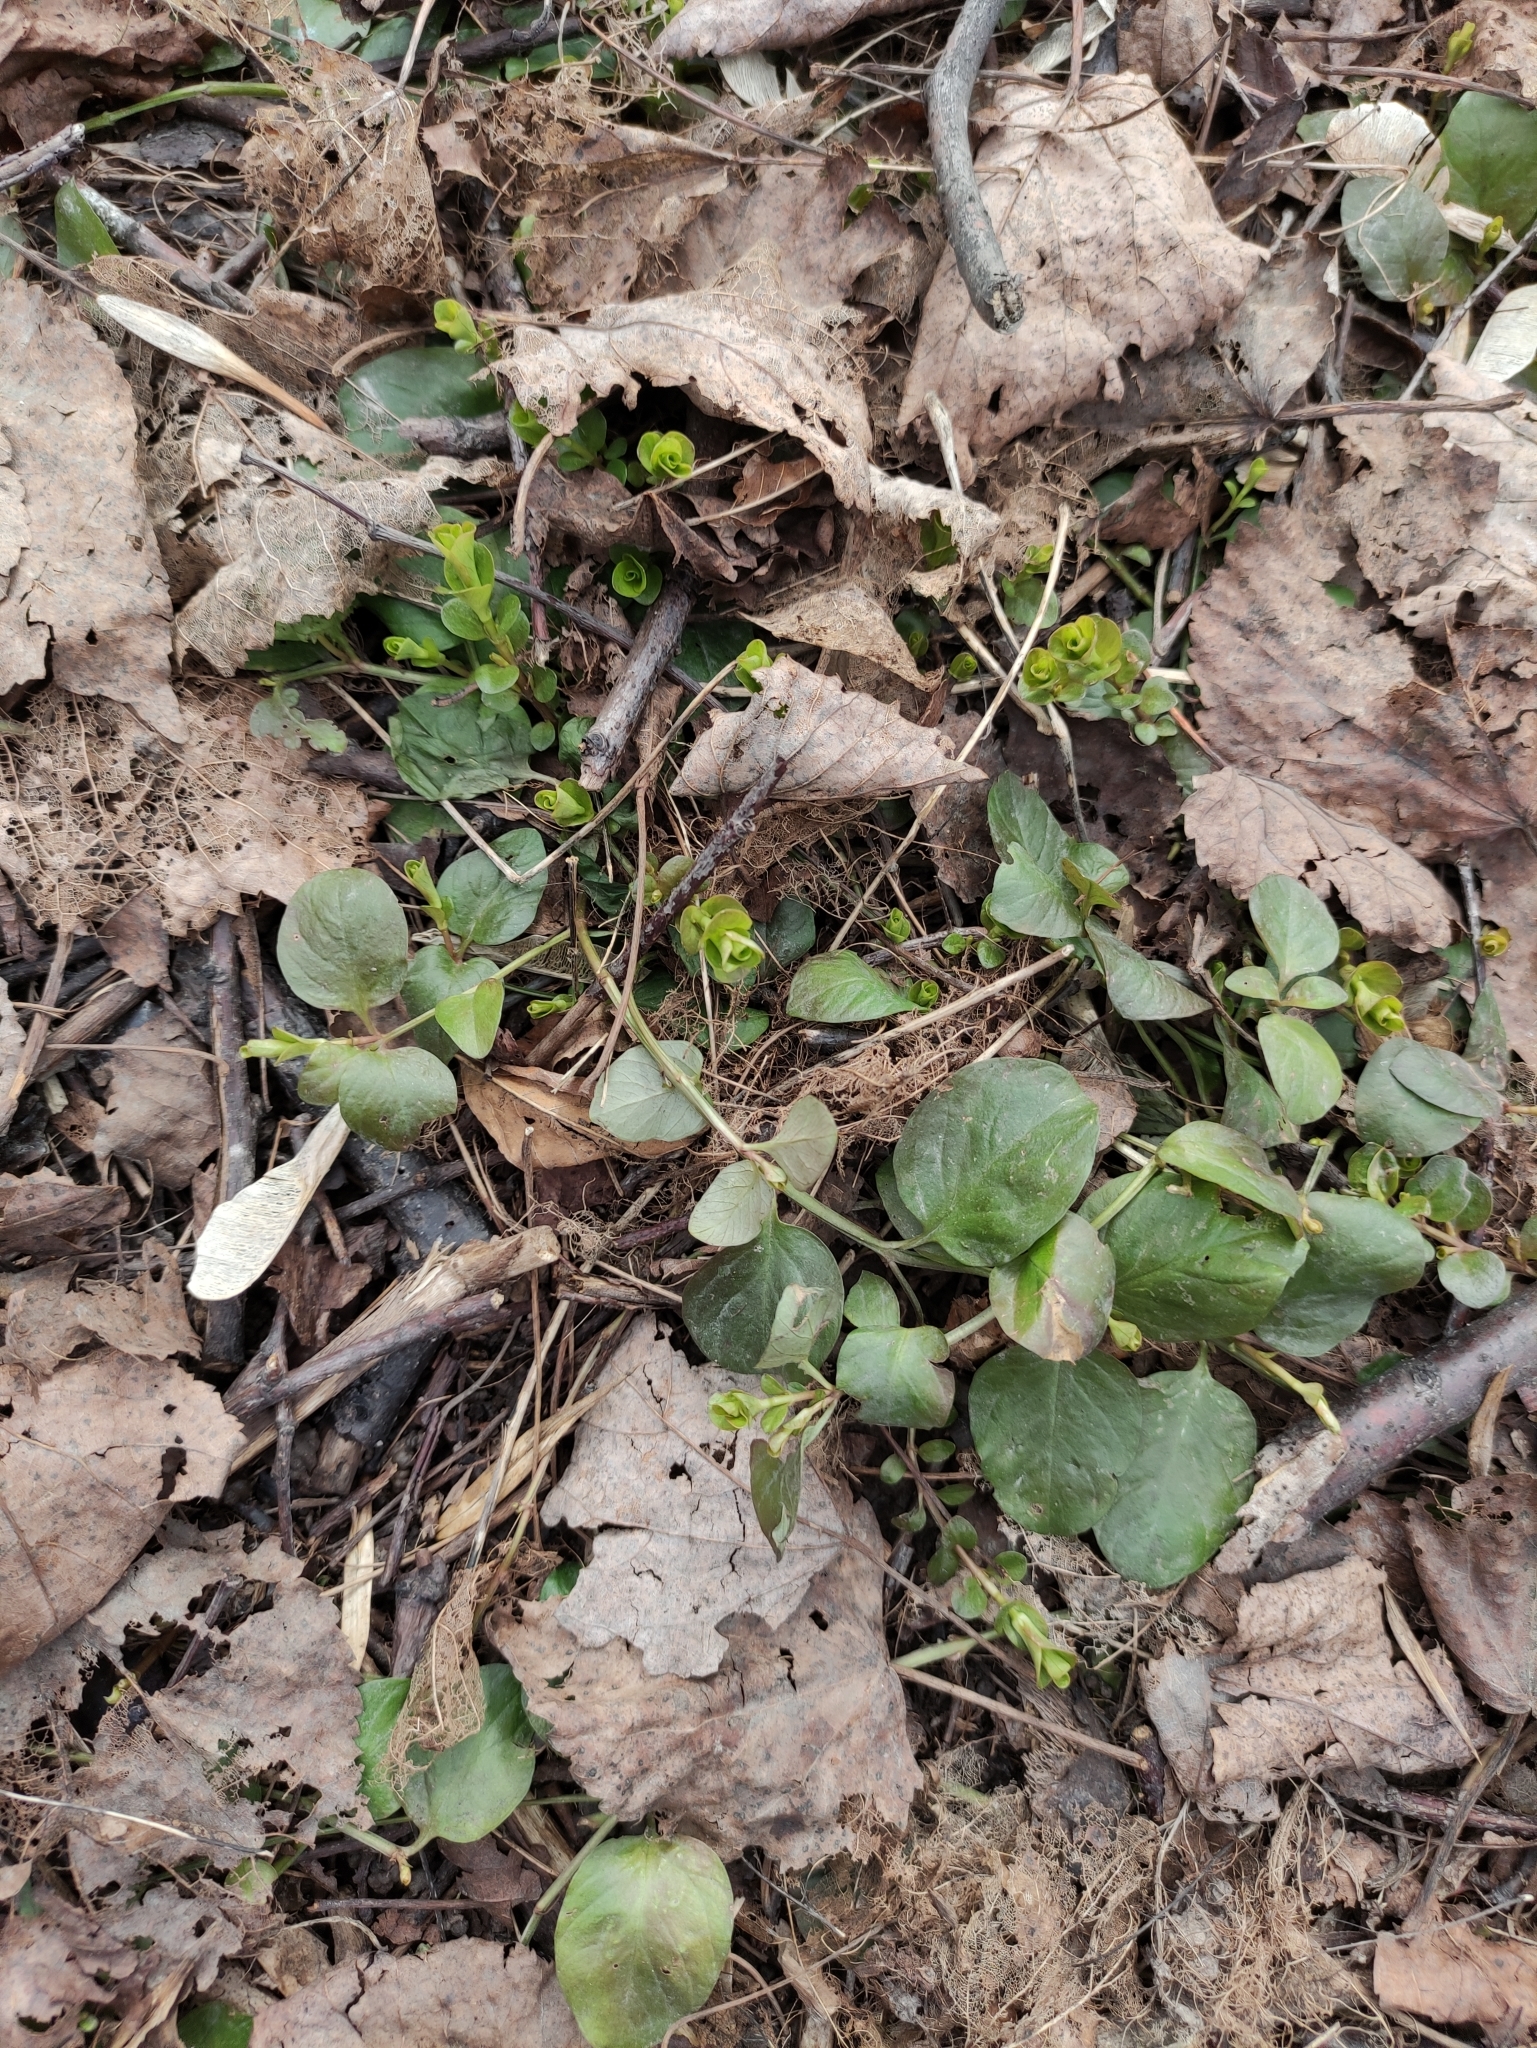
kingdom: Plantae
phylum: Tracheophyta
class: Magnoliopsida
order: Ericales
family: Primulaceae
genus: Lysimachia
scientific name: Lysimachia nummularia
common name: Moneywort
